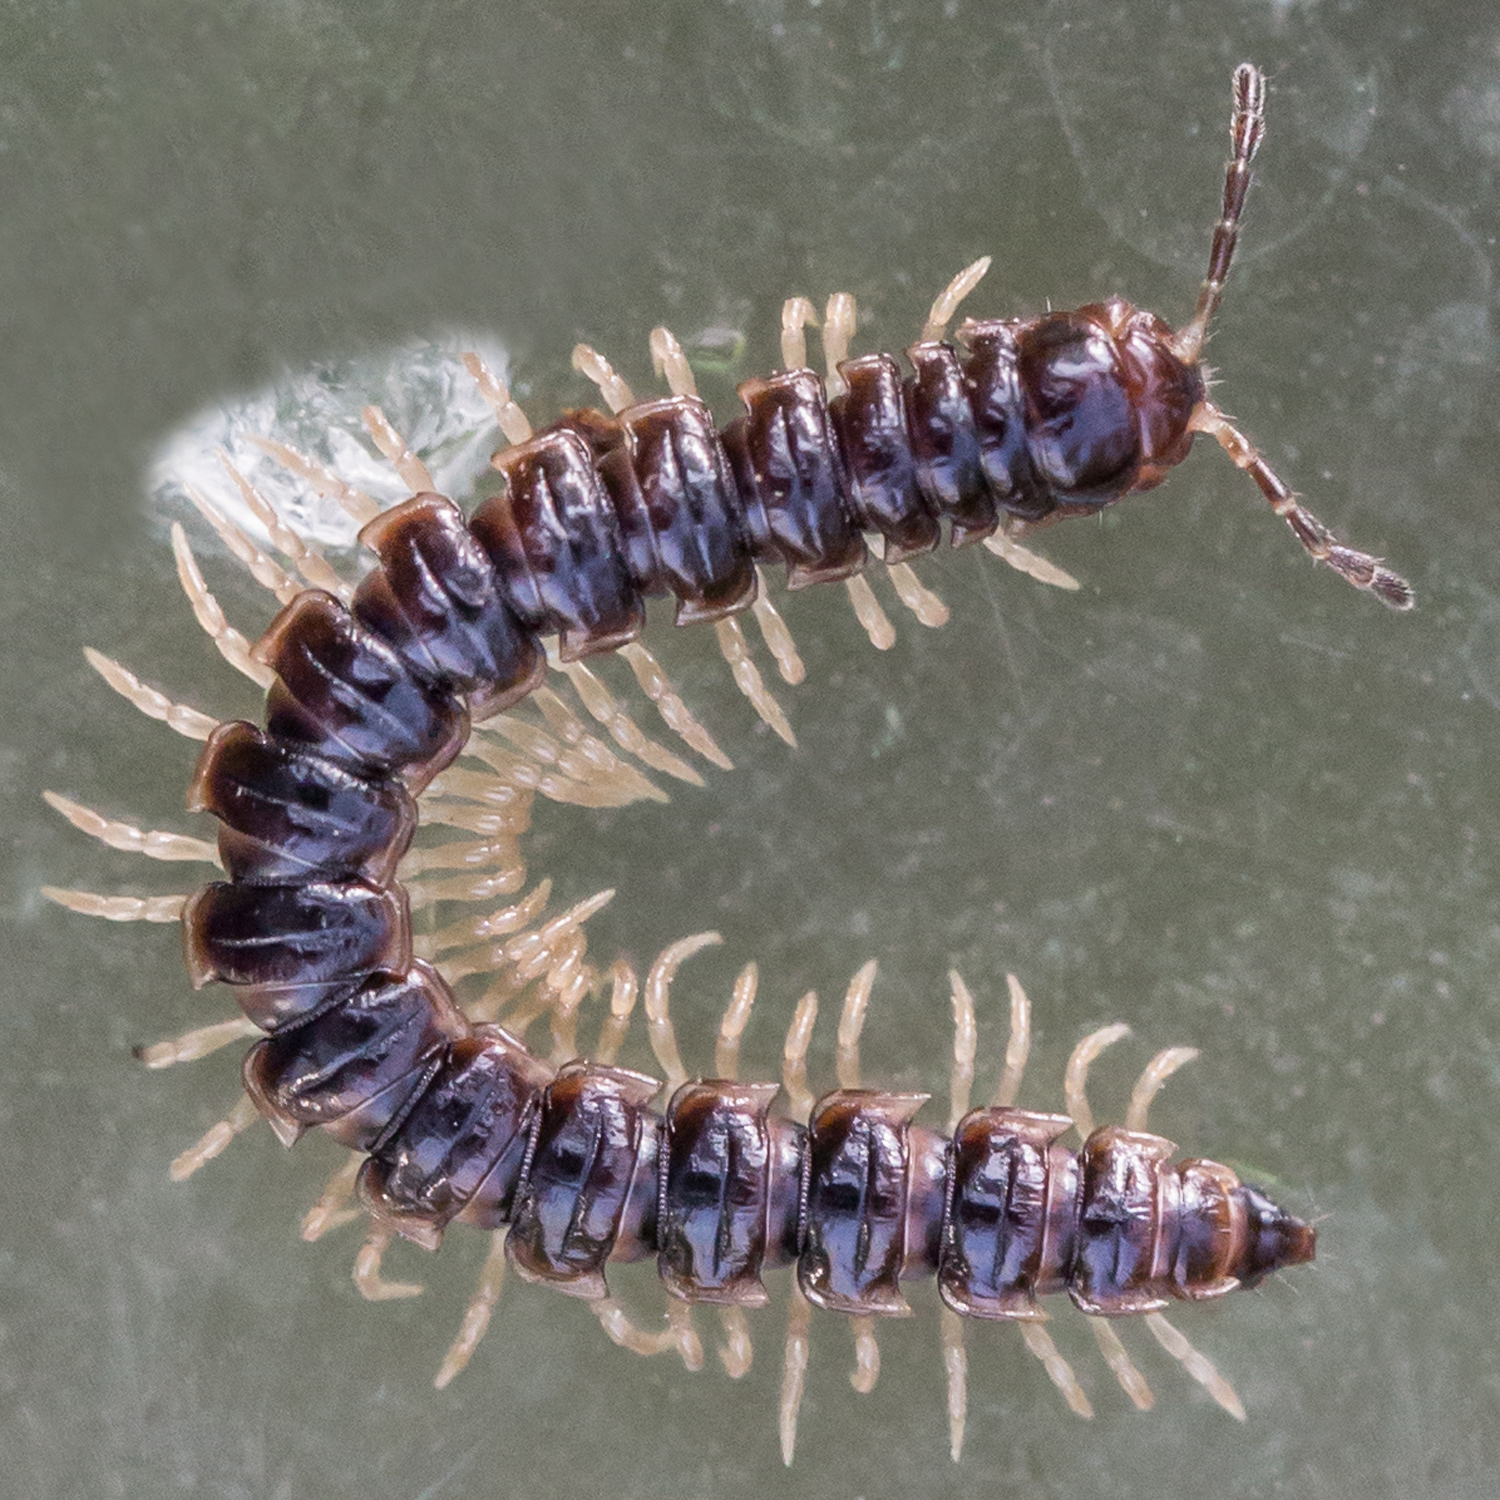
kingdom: Animalia
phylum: Arthropoda
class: Diplopoda
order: Polydesmida
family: Paradoxosomatidae
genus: Oxidus
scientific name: Oxidus gracilis
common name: Greenhouse millipede
